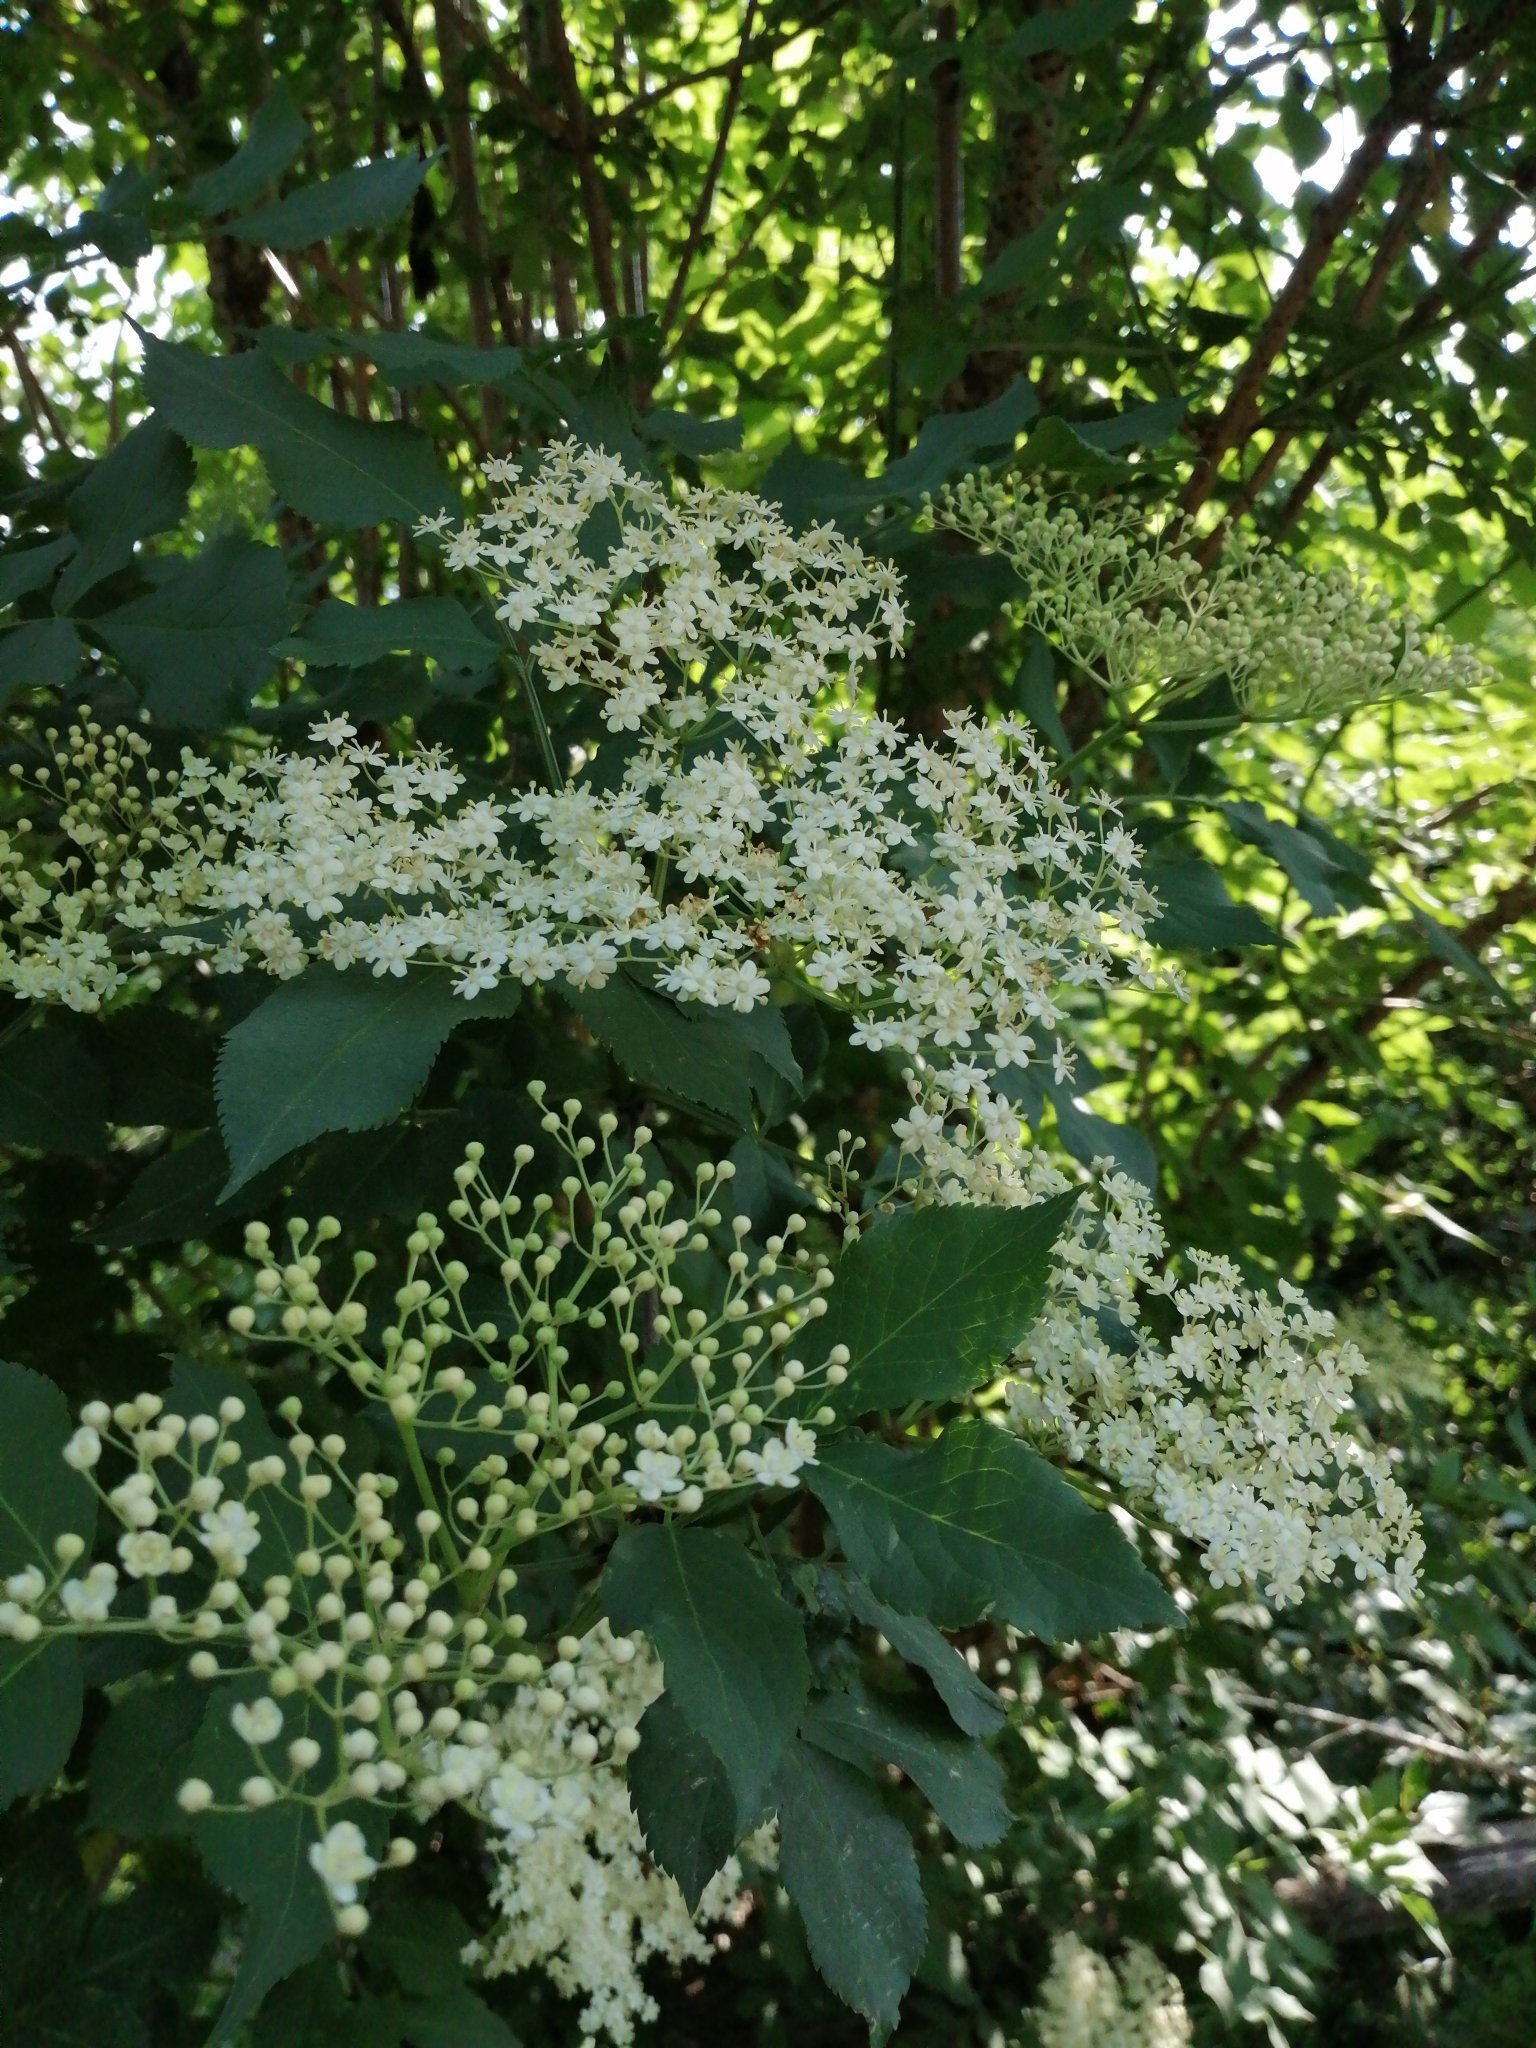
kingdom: Plantae
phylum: Tracheophyta
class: Magnoliopsida
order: Dipsacales
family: Viburnaceae
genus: Sambucus
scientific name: Sambucus nigra
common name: Elder
